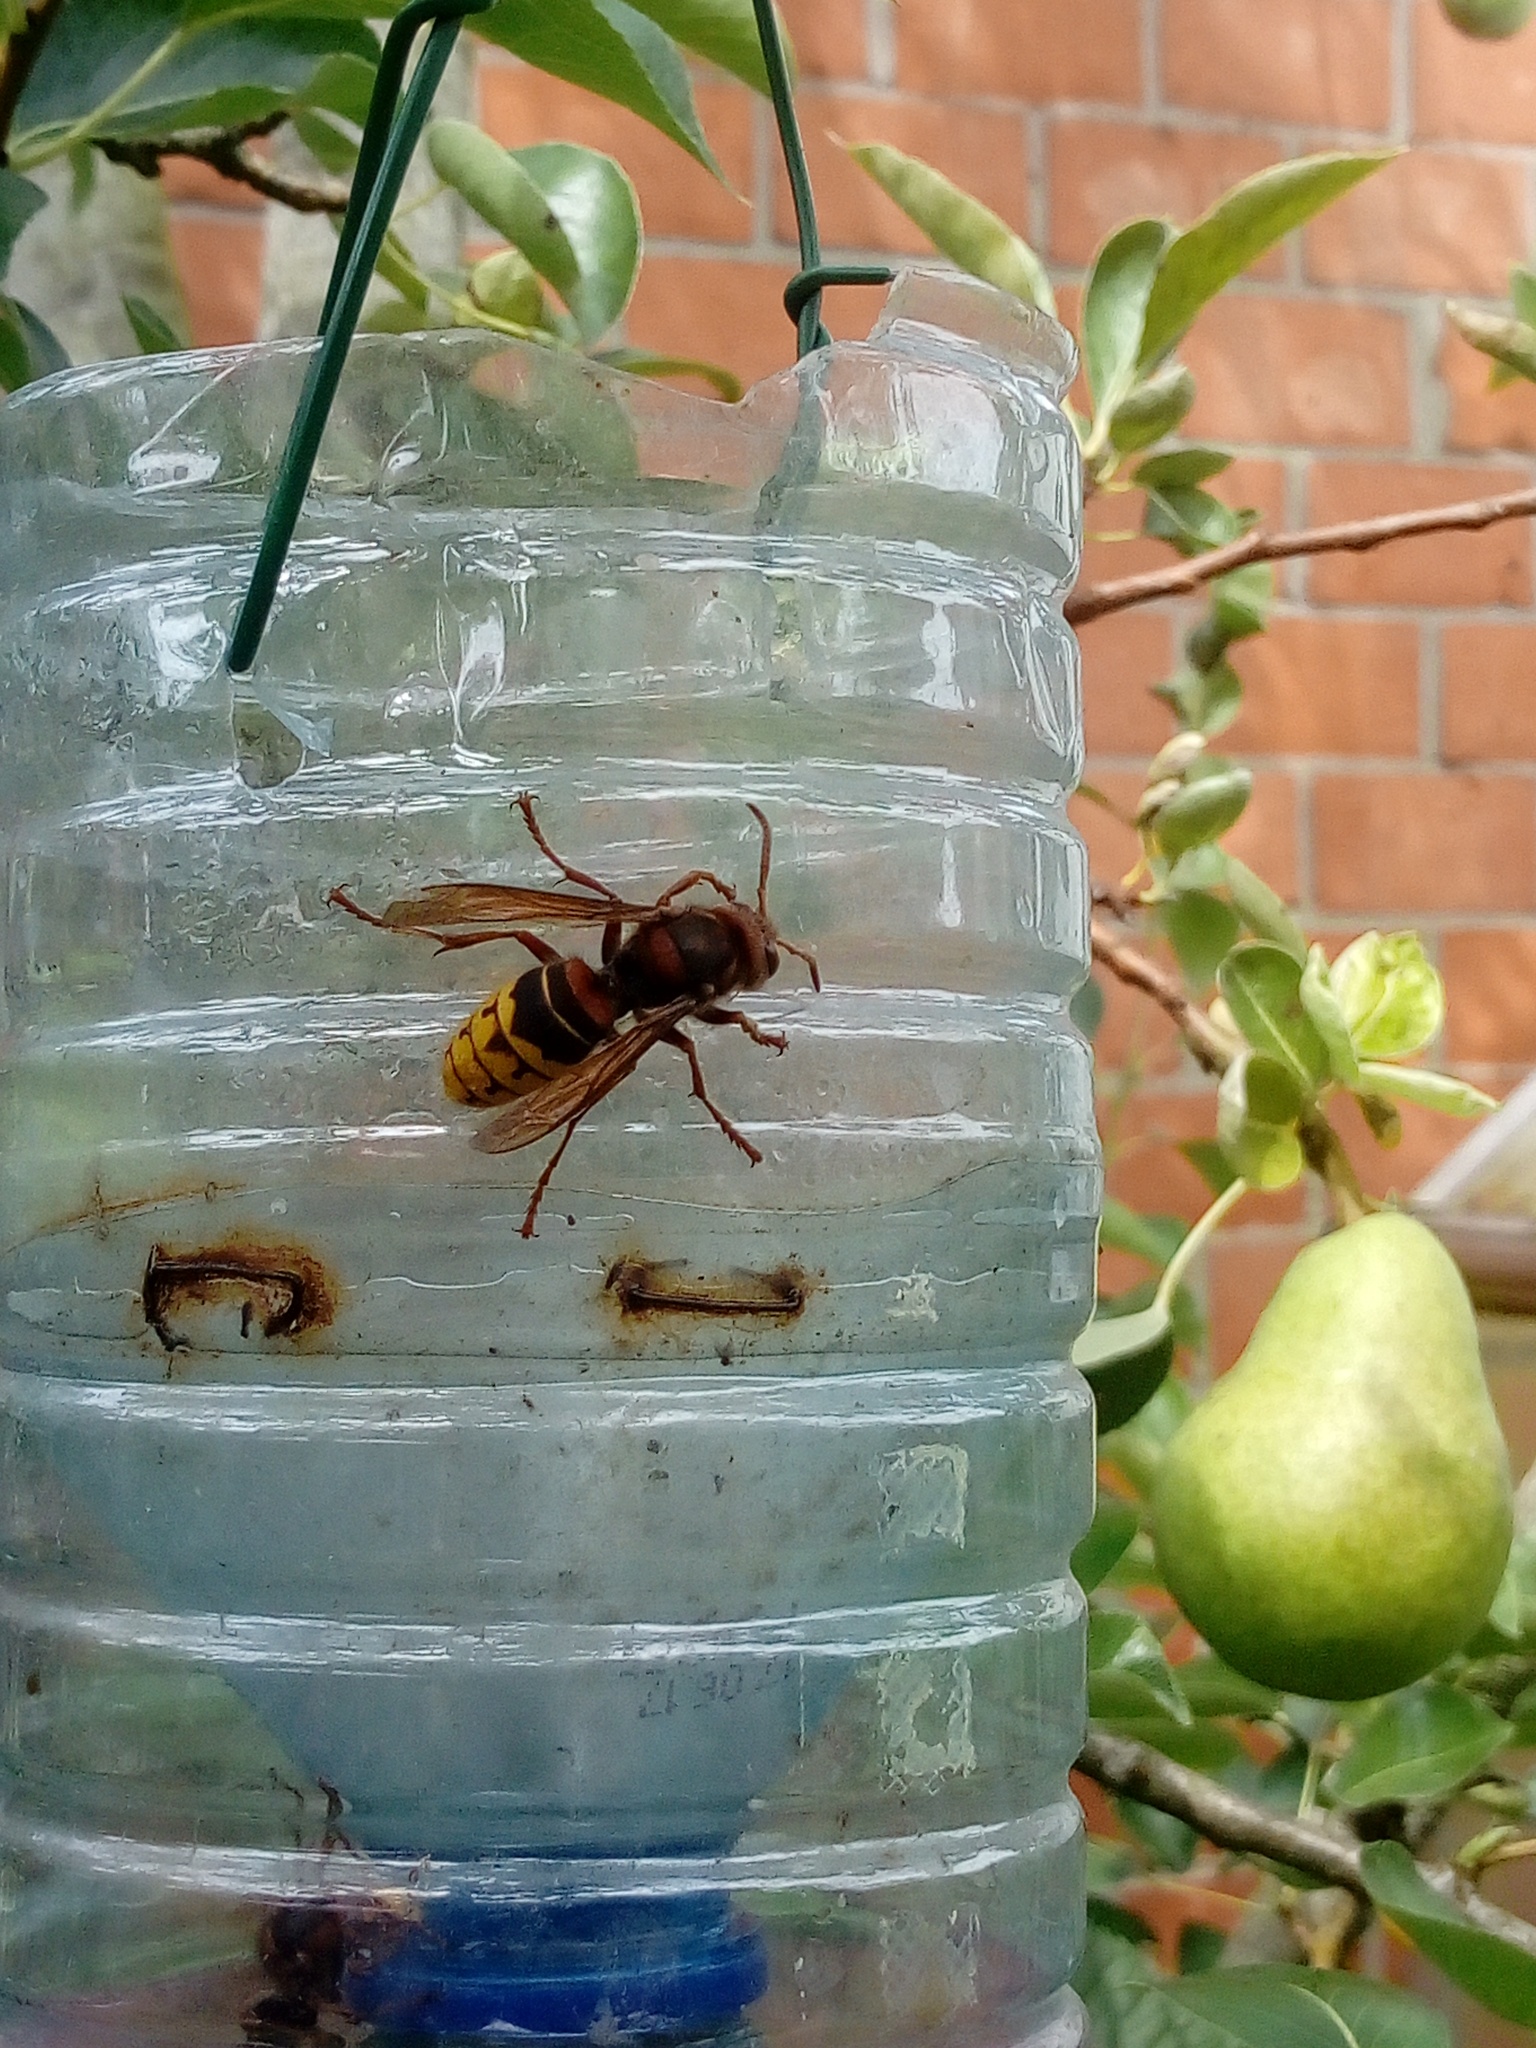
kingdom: Animalia
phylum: Arthropoda
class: Insecta
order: Hymenoptera
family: Vespidae
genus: Vespa
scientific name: Vespa crabro
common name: Hornet
